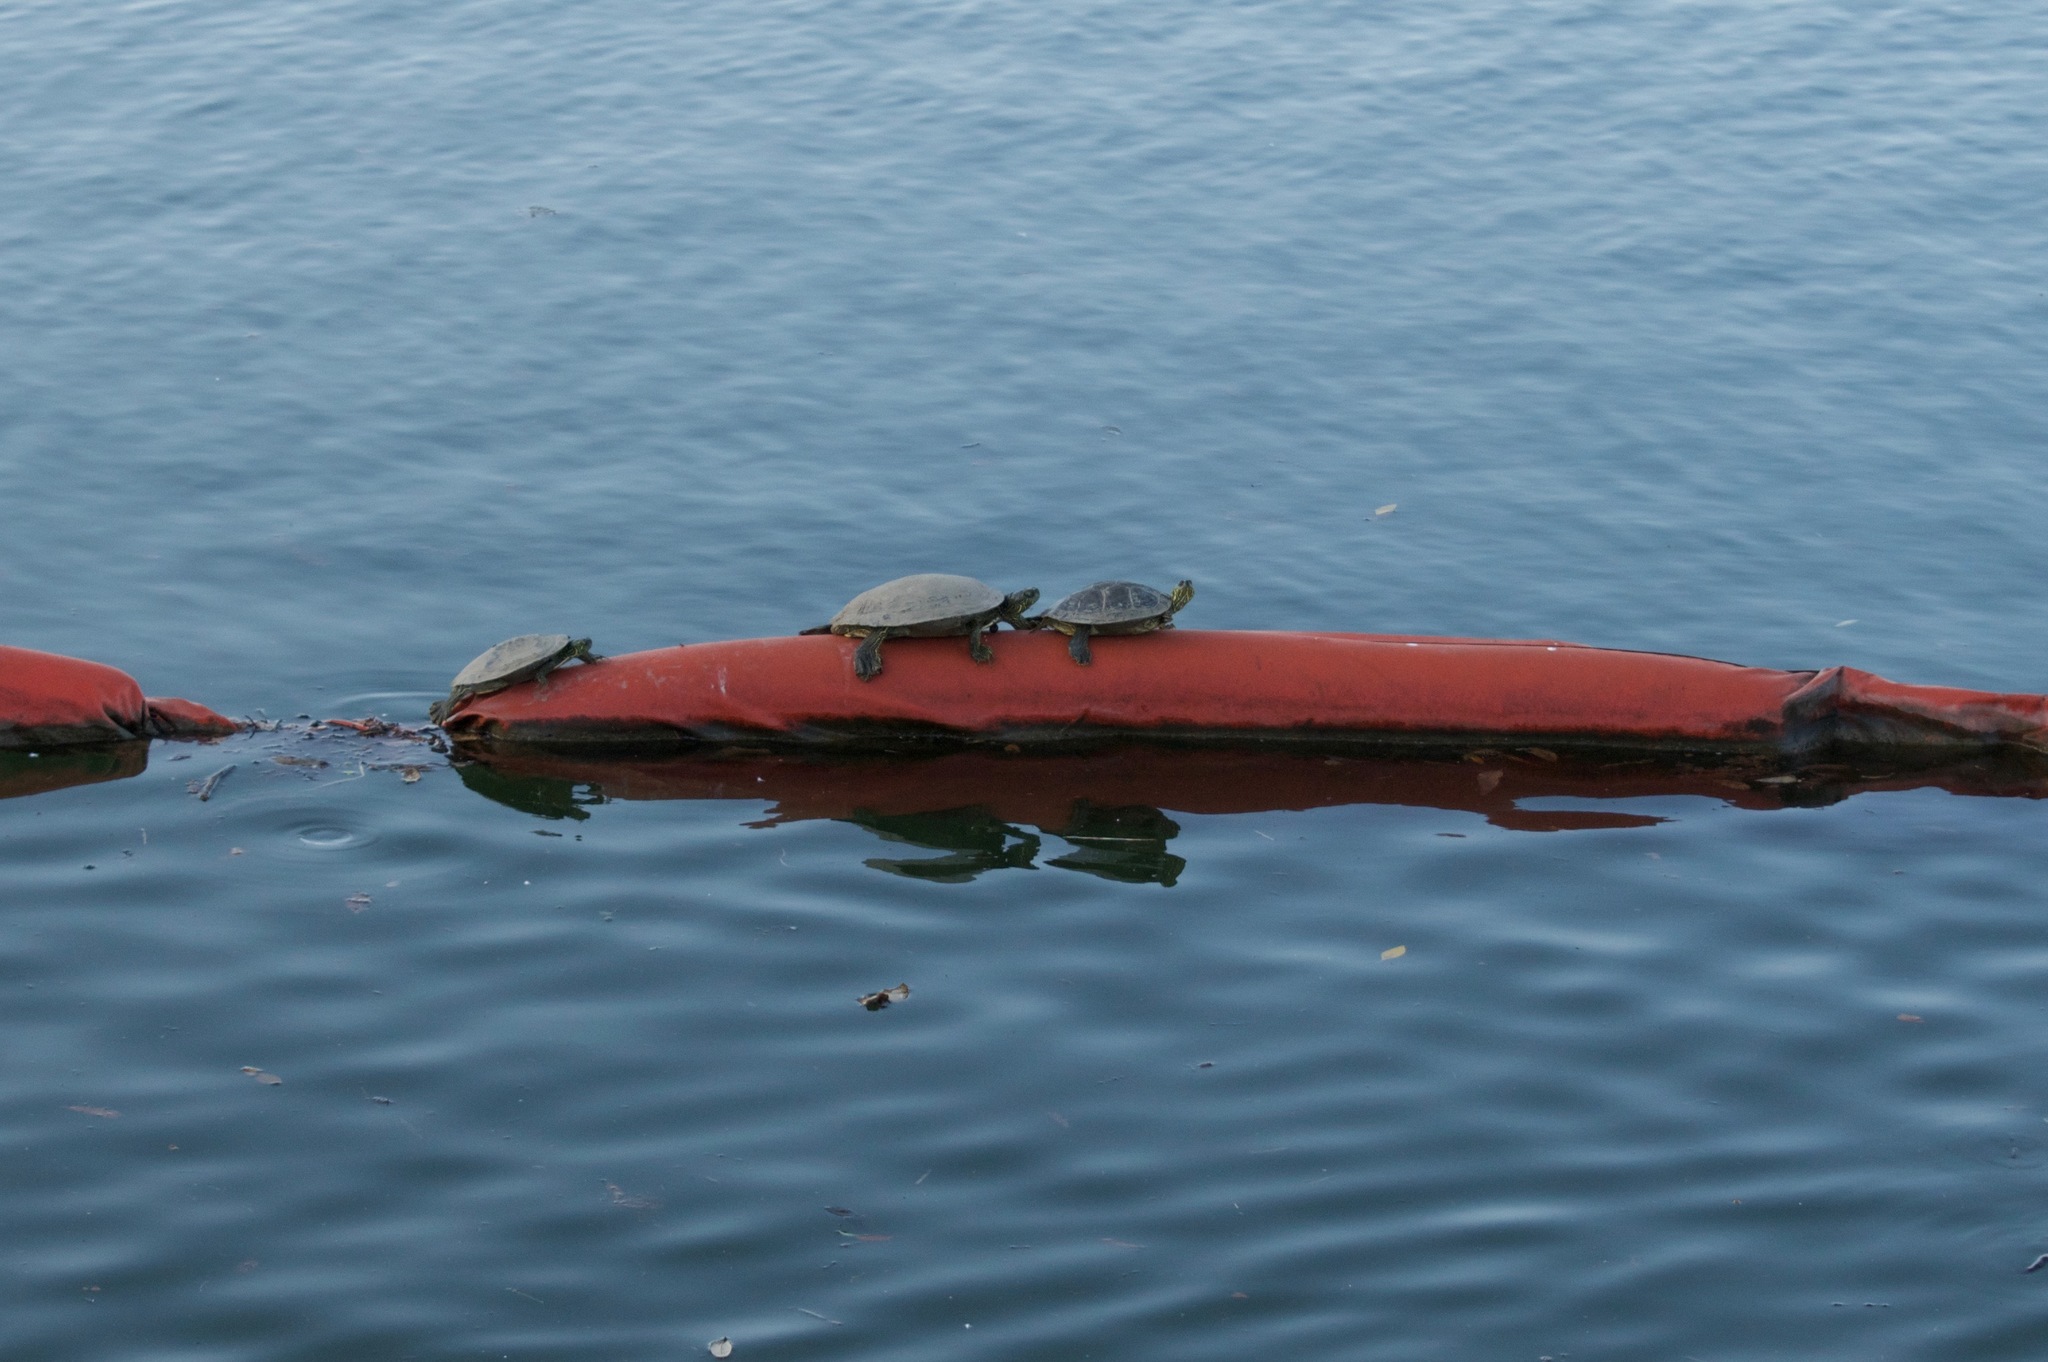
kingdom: Animalia
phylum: Chordata
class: Testudines
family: Emydidae
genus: Pseudemys
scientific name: Pseudemys texana
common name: Texas river cooter
